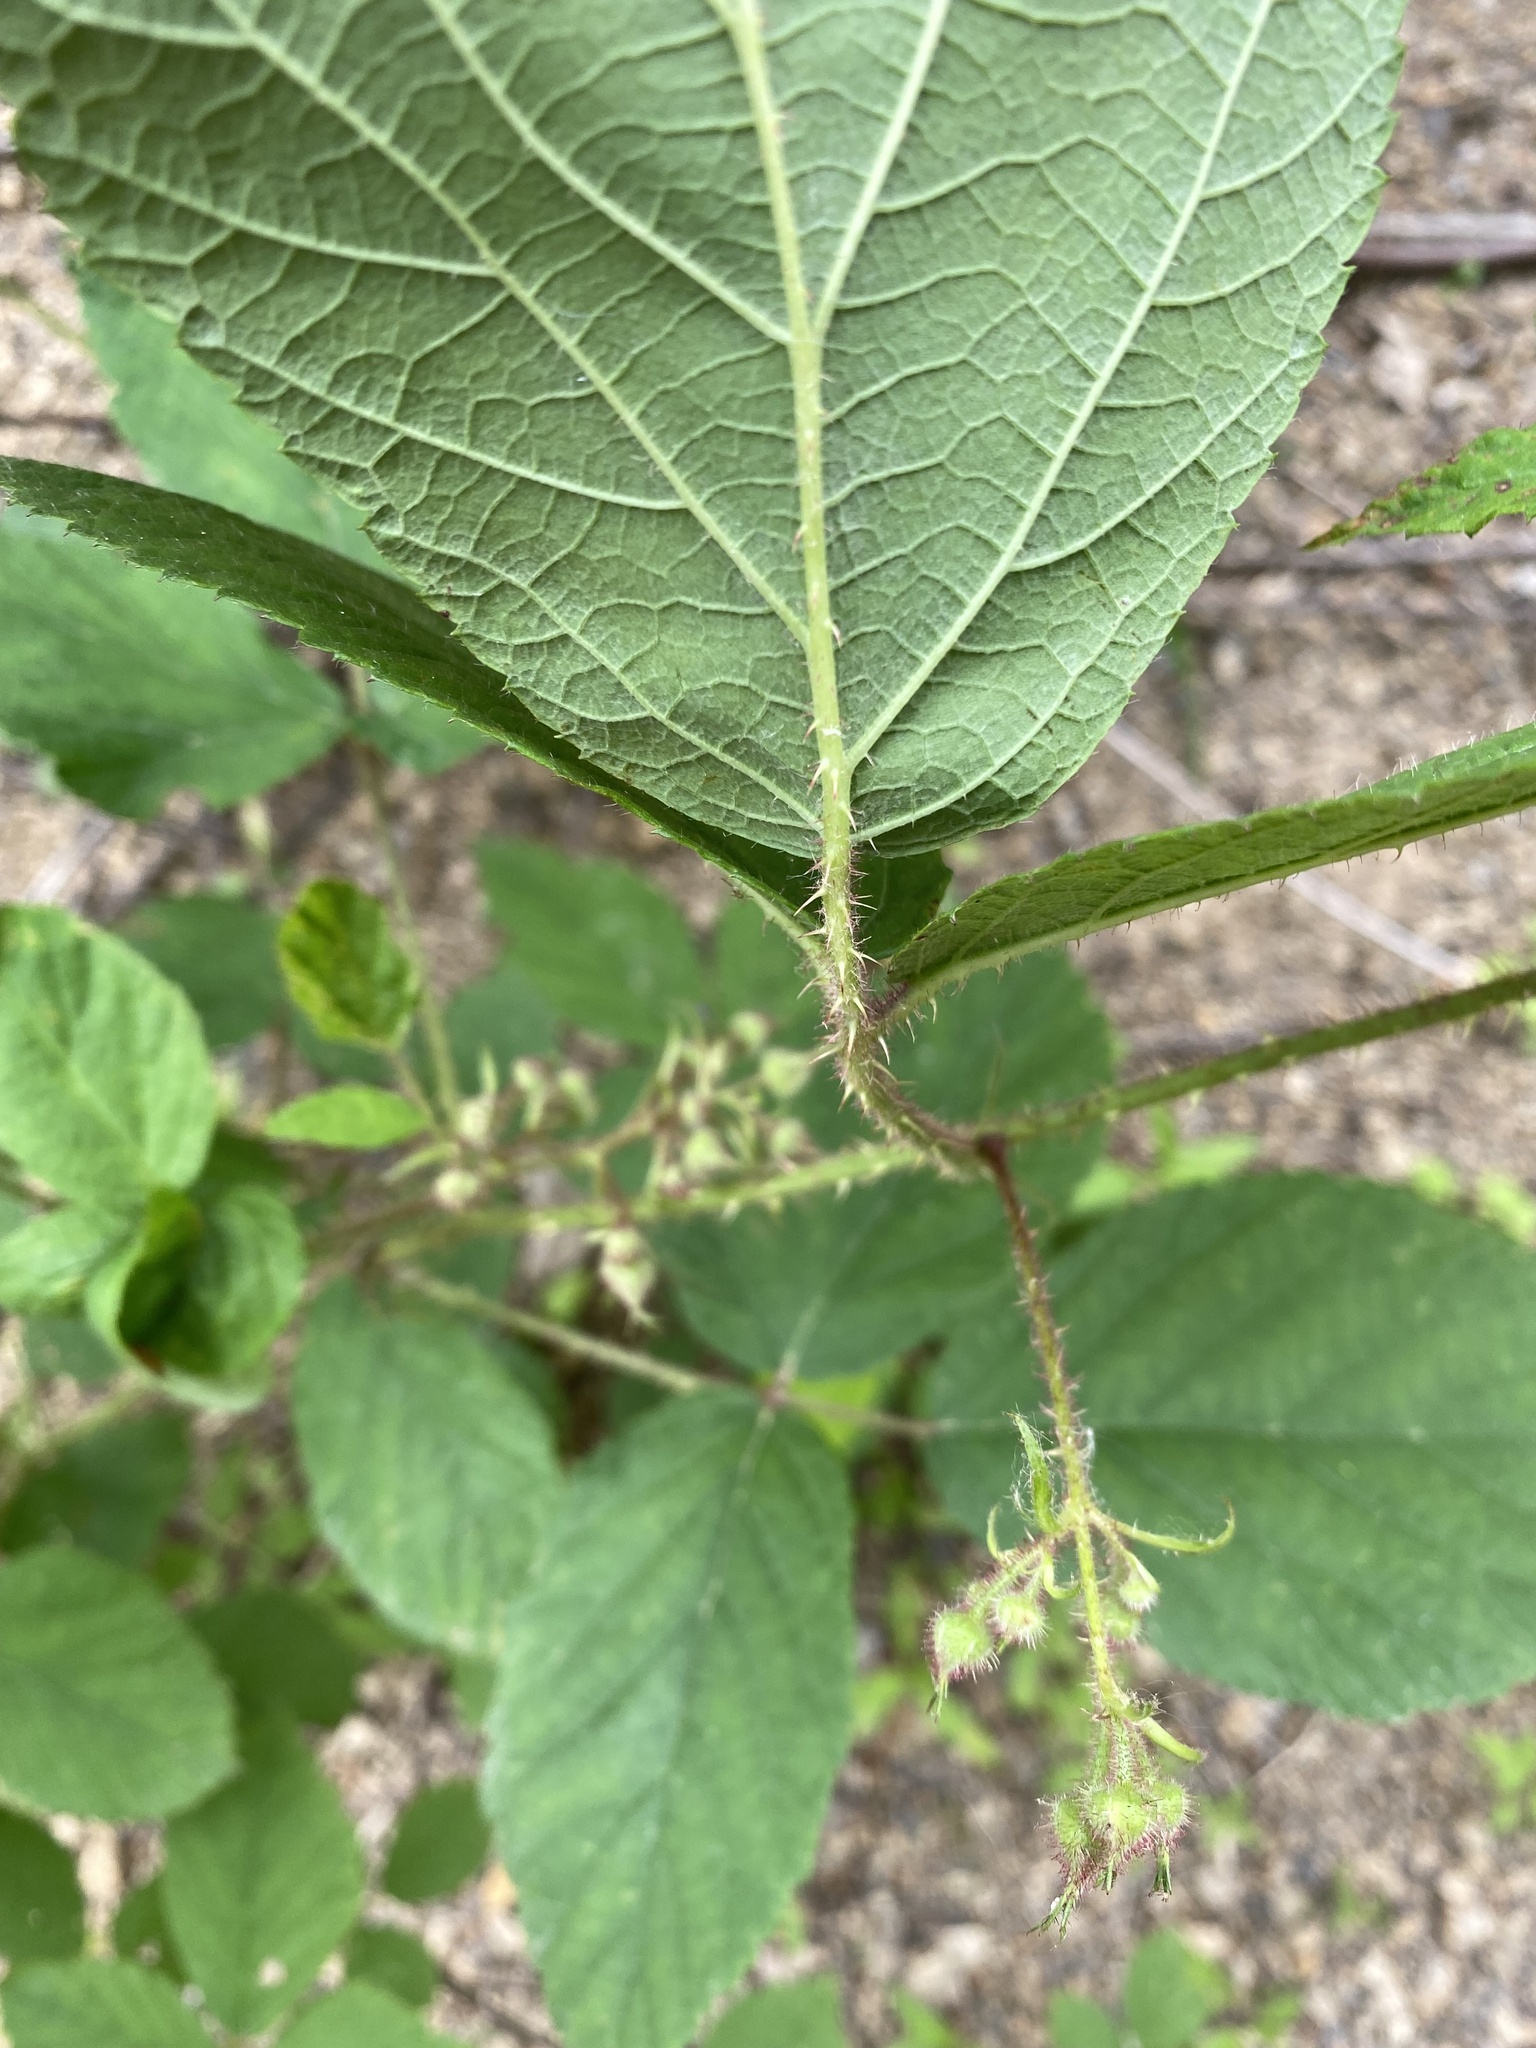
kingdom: Plantae
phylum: Tracheophyta
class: Magnoliopsida
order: Rosales
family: Rosaceae
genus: Rubus
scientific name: Rubus hirtus
